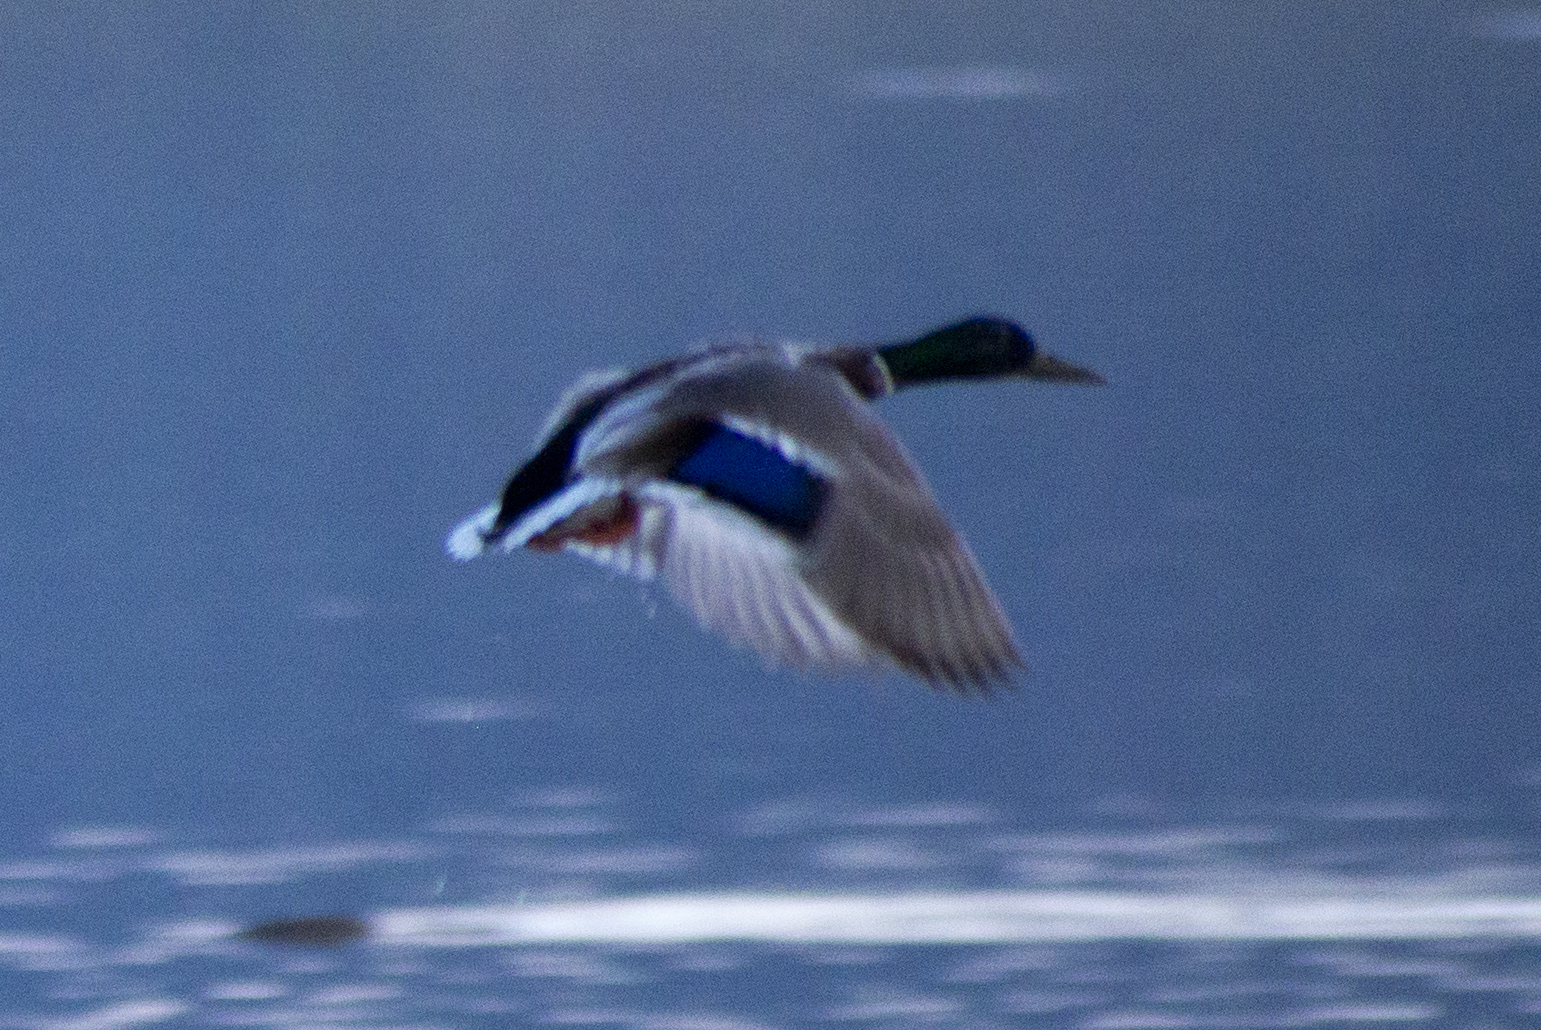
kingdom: Animalia
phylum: Chordata
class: Aves
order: Anseriformes
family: Anatidae
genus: Anas
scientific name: Anas platyrhynchos
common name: Mallard
